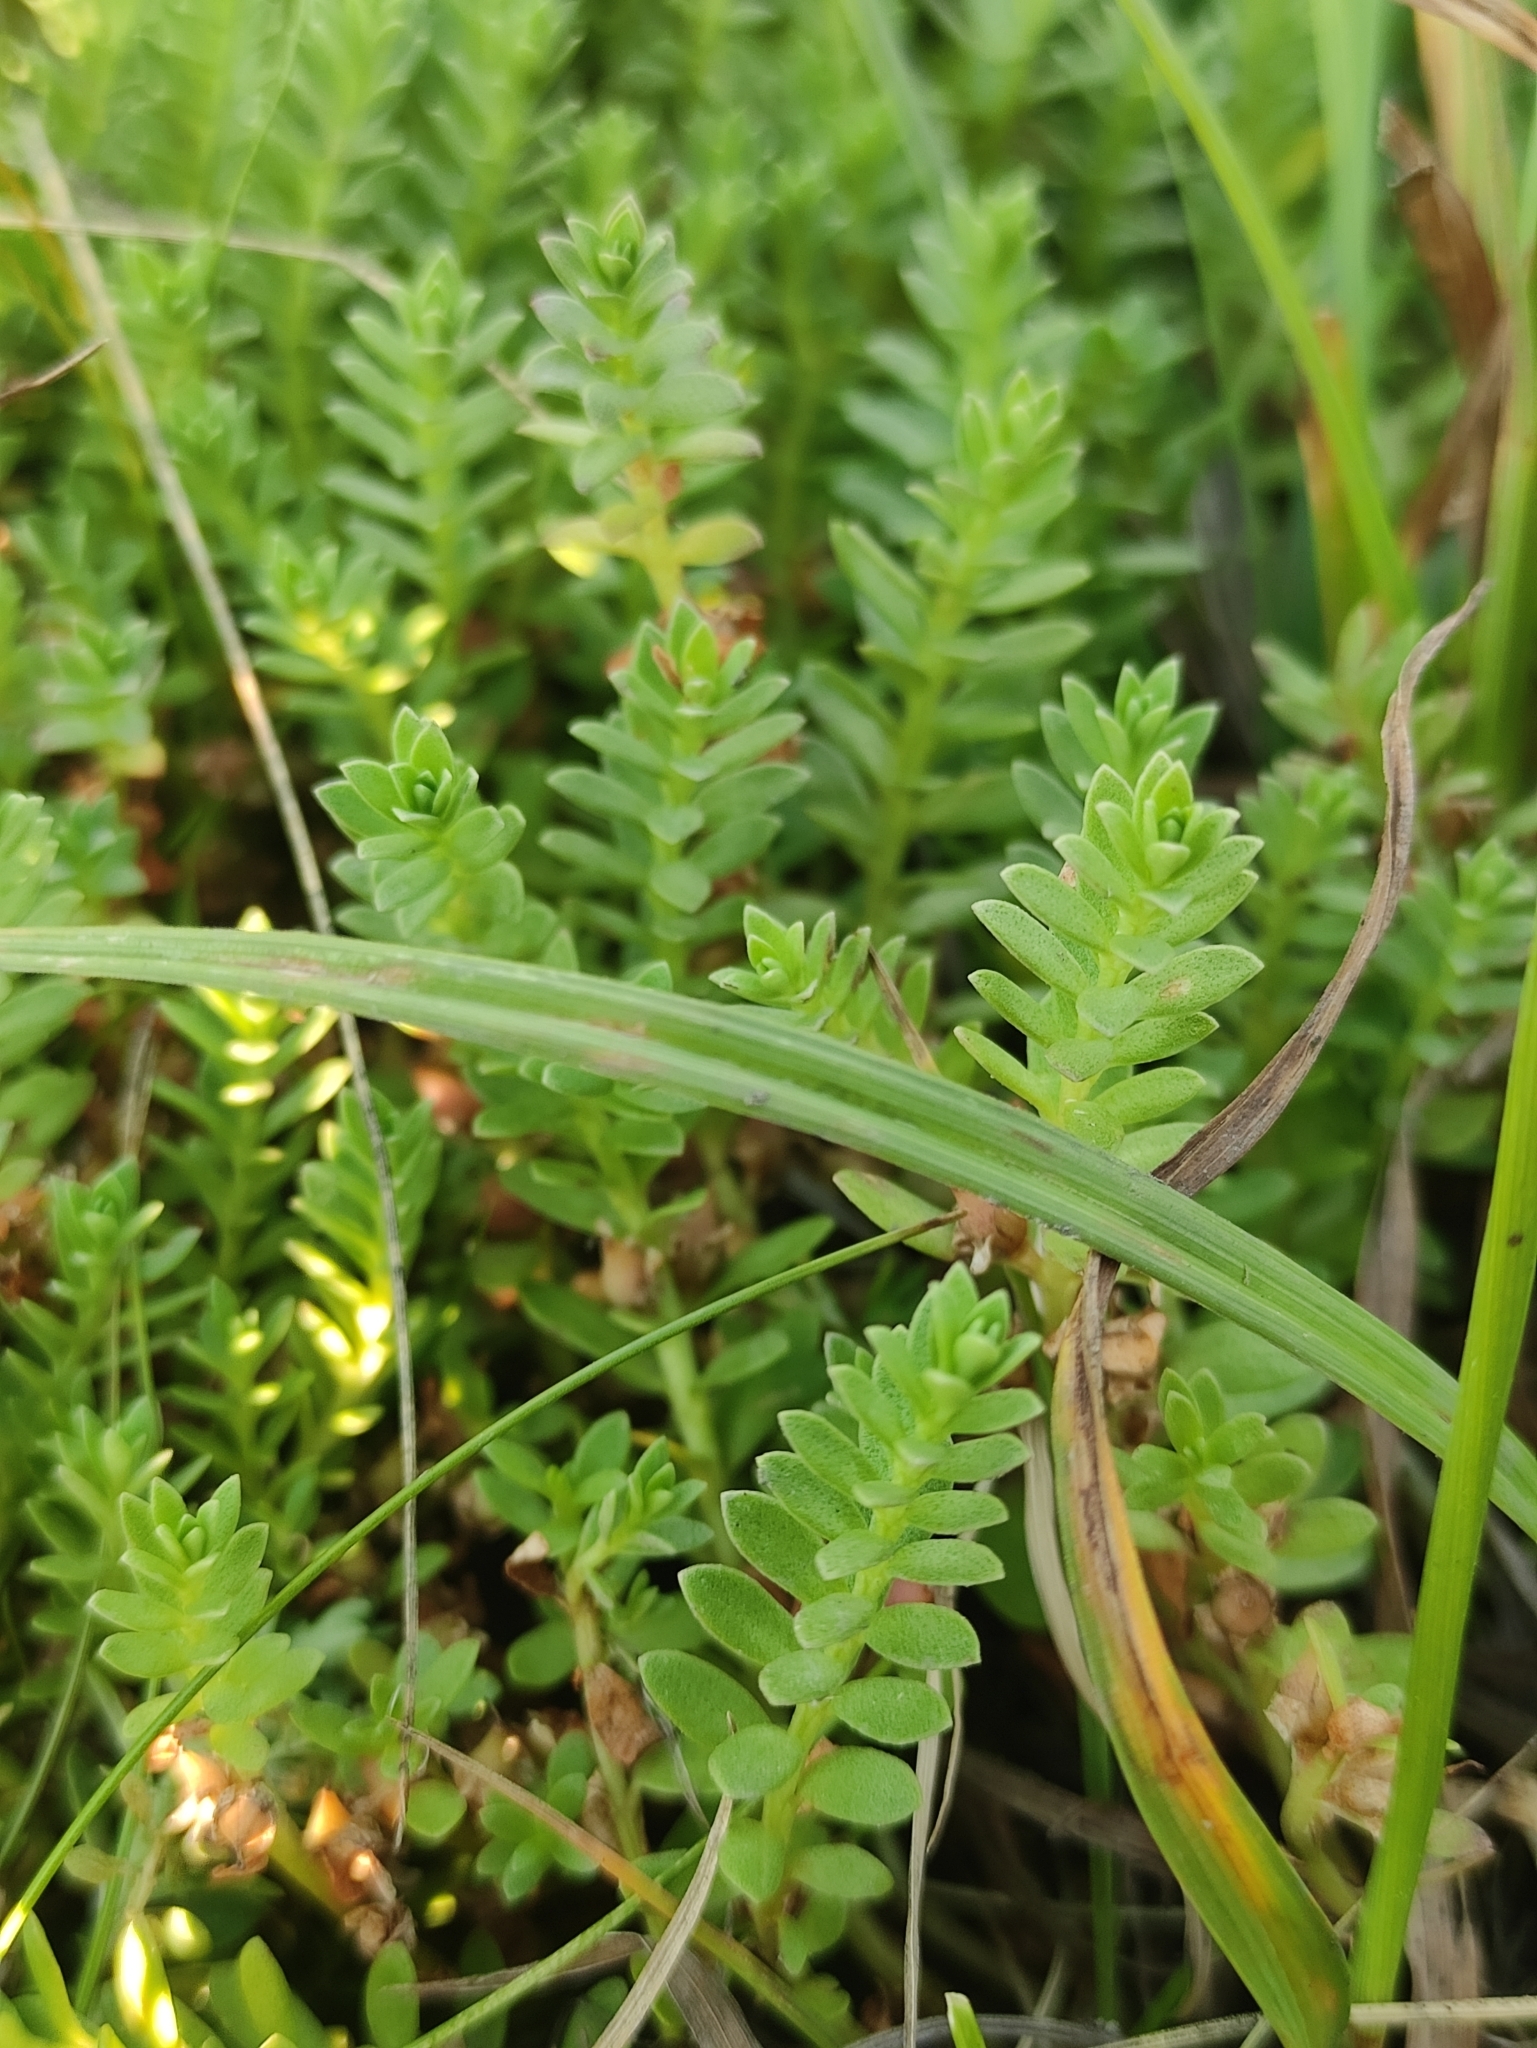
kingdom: Plantae
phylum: Tracheophyta
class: Magnoliopsida
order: Ericales
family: Primulaceae
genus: Lysimachia
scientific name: Lysimachia maritima
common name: Sea milkwort
